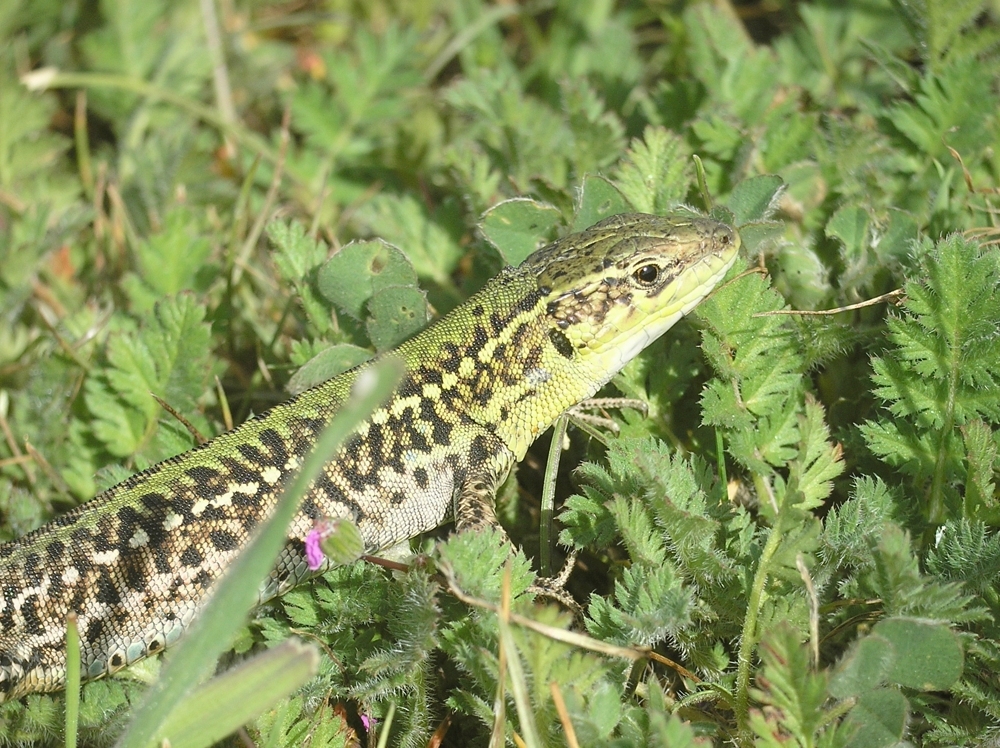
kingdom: Animalia
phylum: Chordata
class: Squamata
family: Lacertidae
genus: Podarcis
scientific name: Podarcis tauricus
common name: Balkan wall lizard
